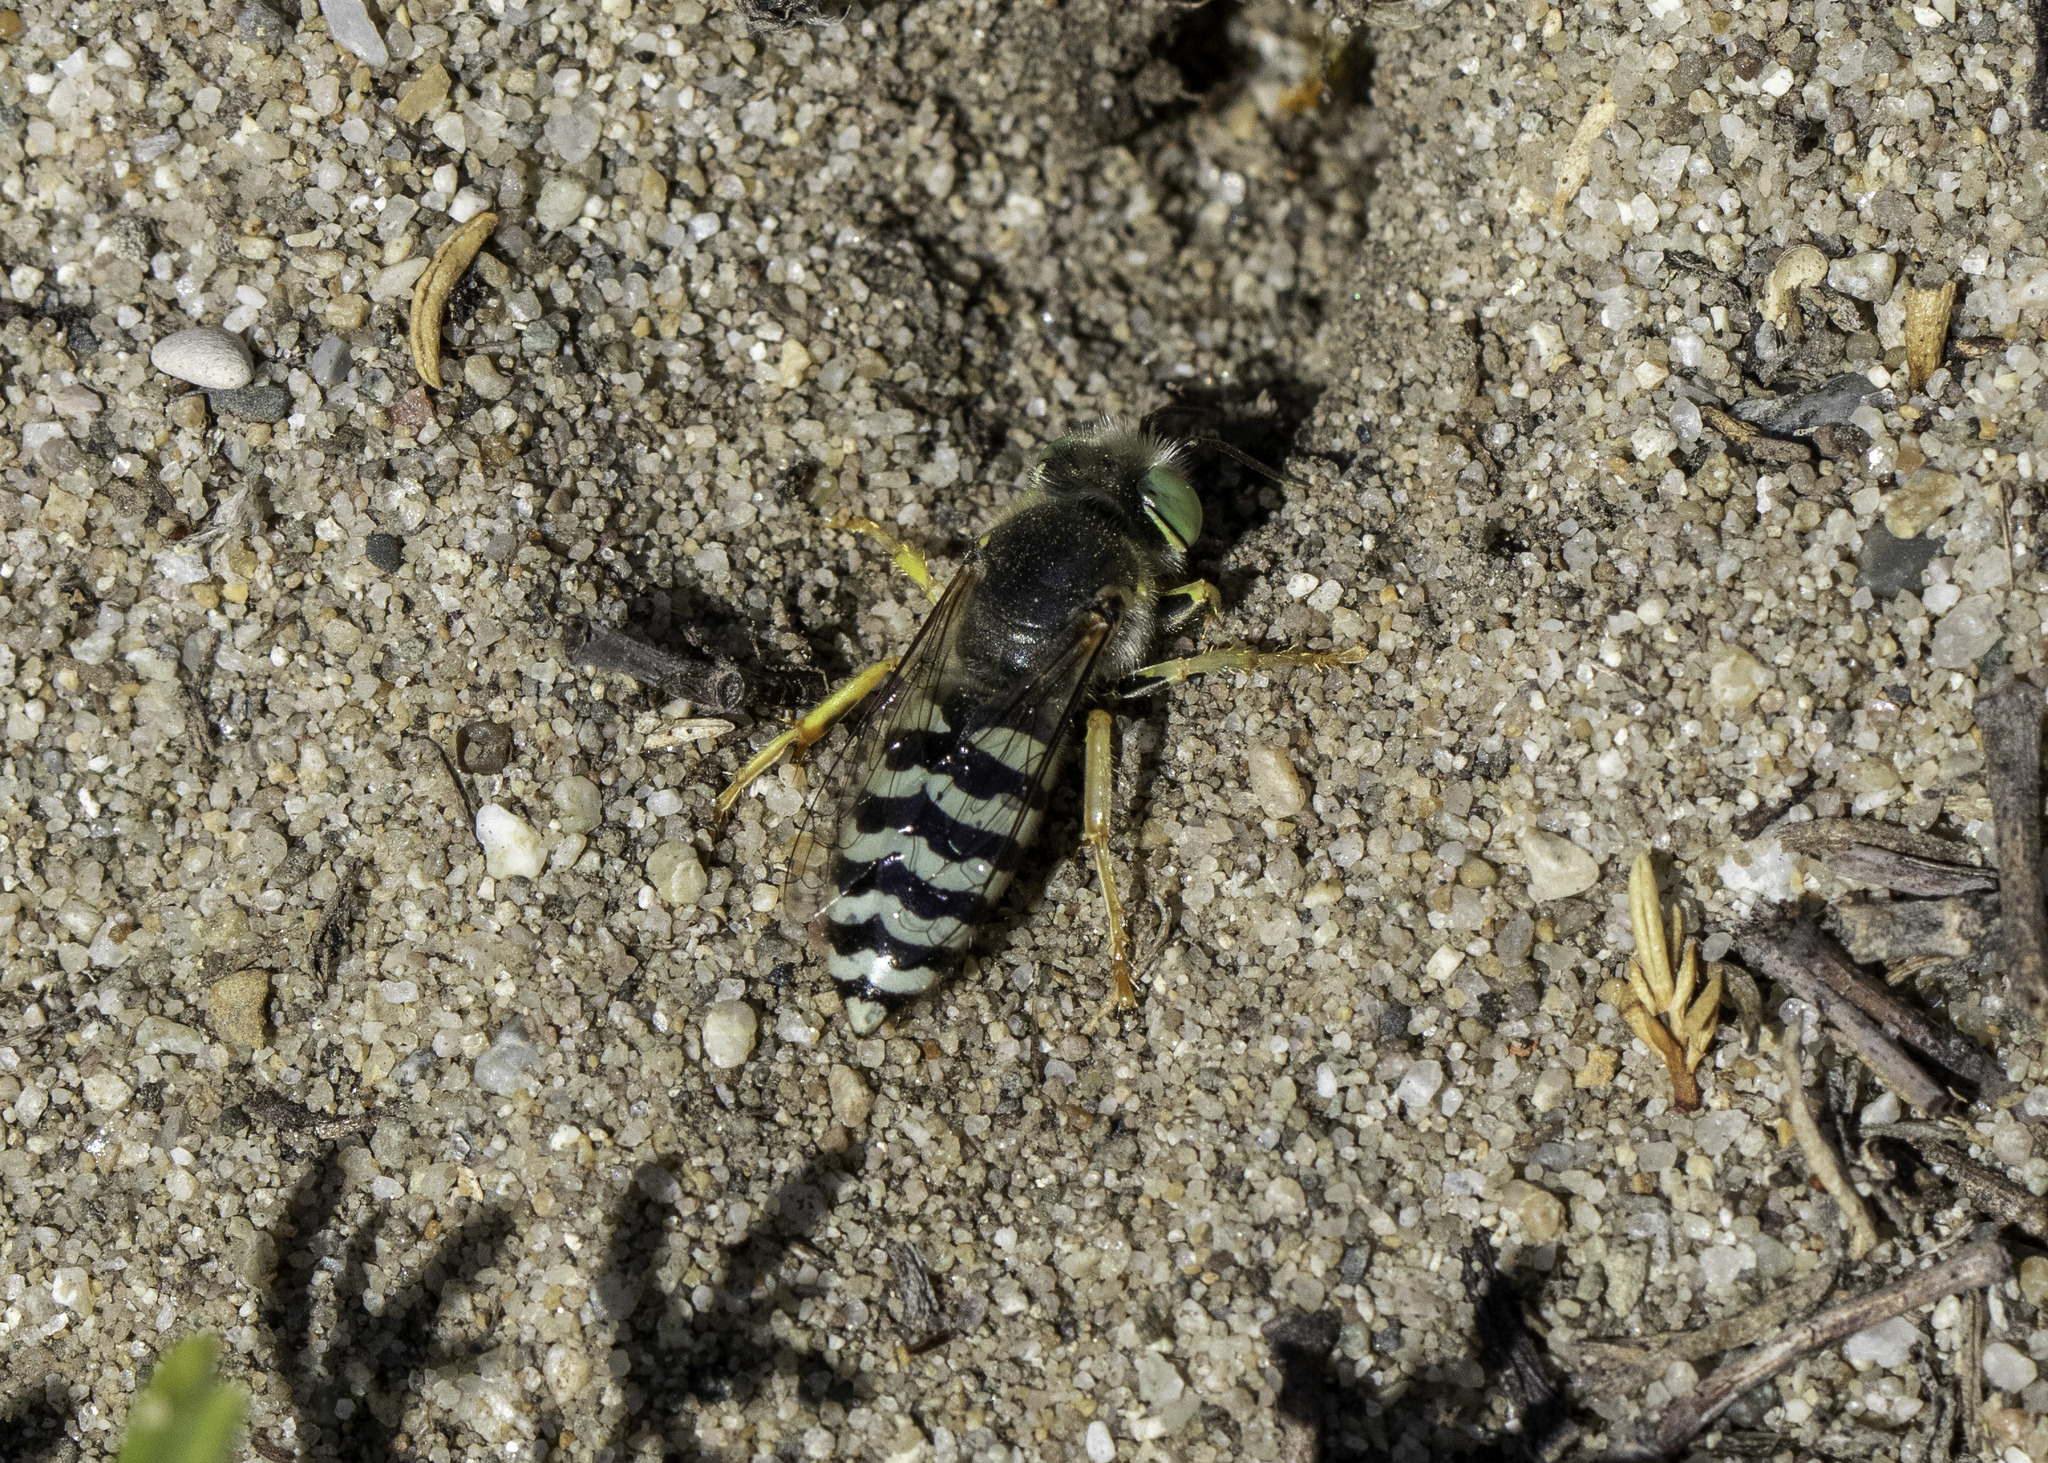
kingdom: Animalia
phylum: Arthropoda
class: Insecta
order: Hymenoptera
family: Crabronidae
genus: Bembix
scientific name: Bembix americana
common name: American sand wasp
